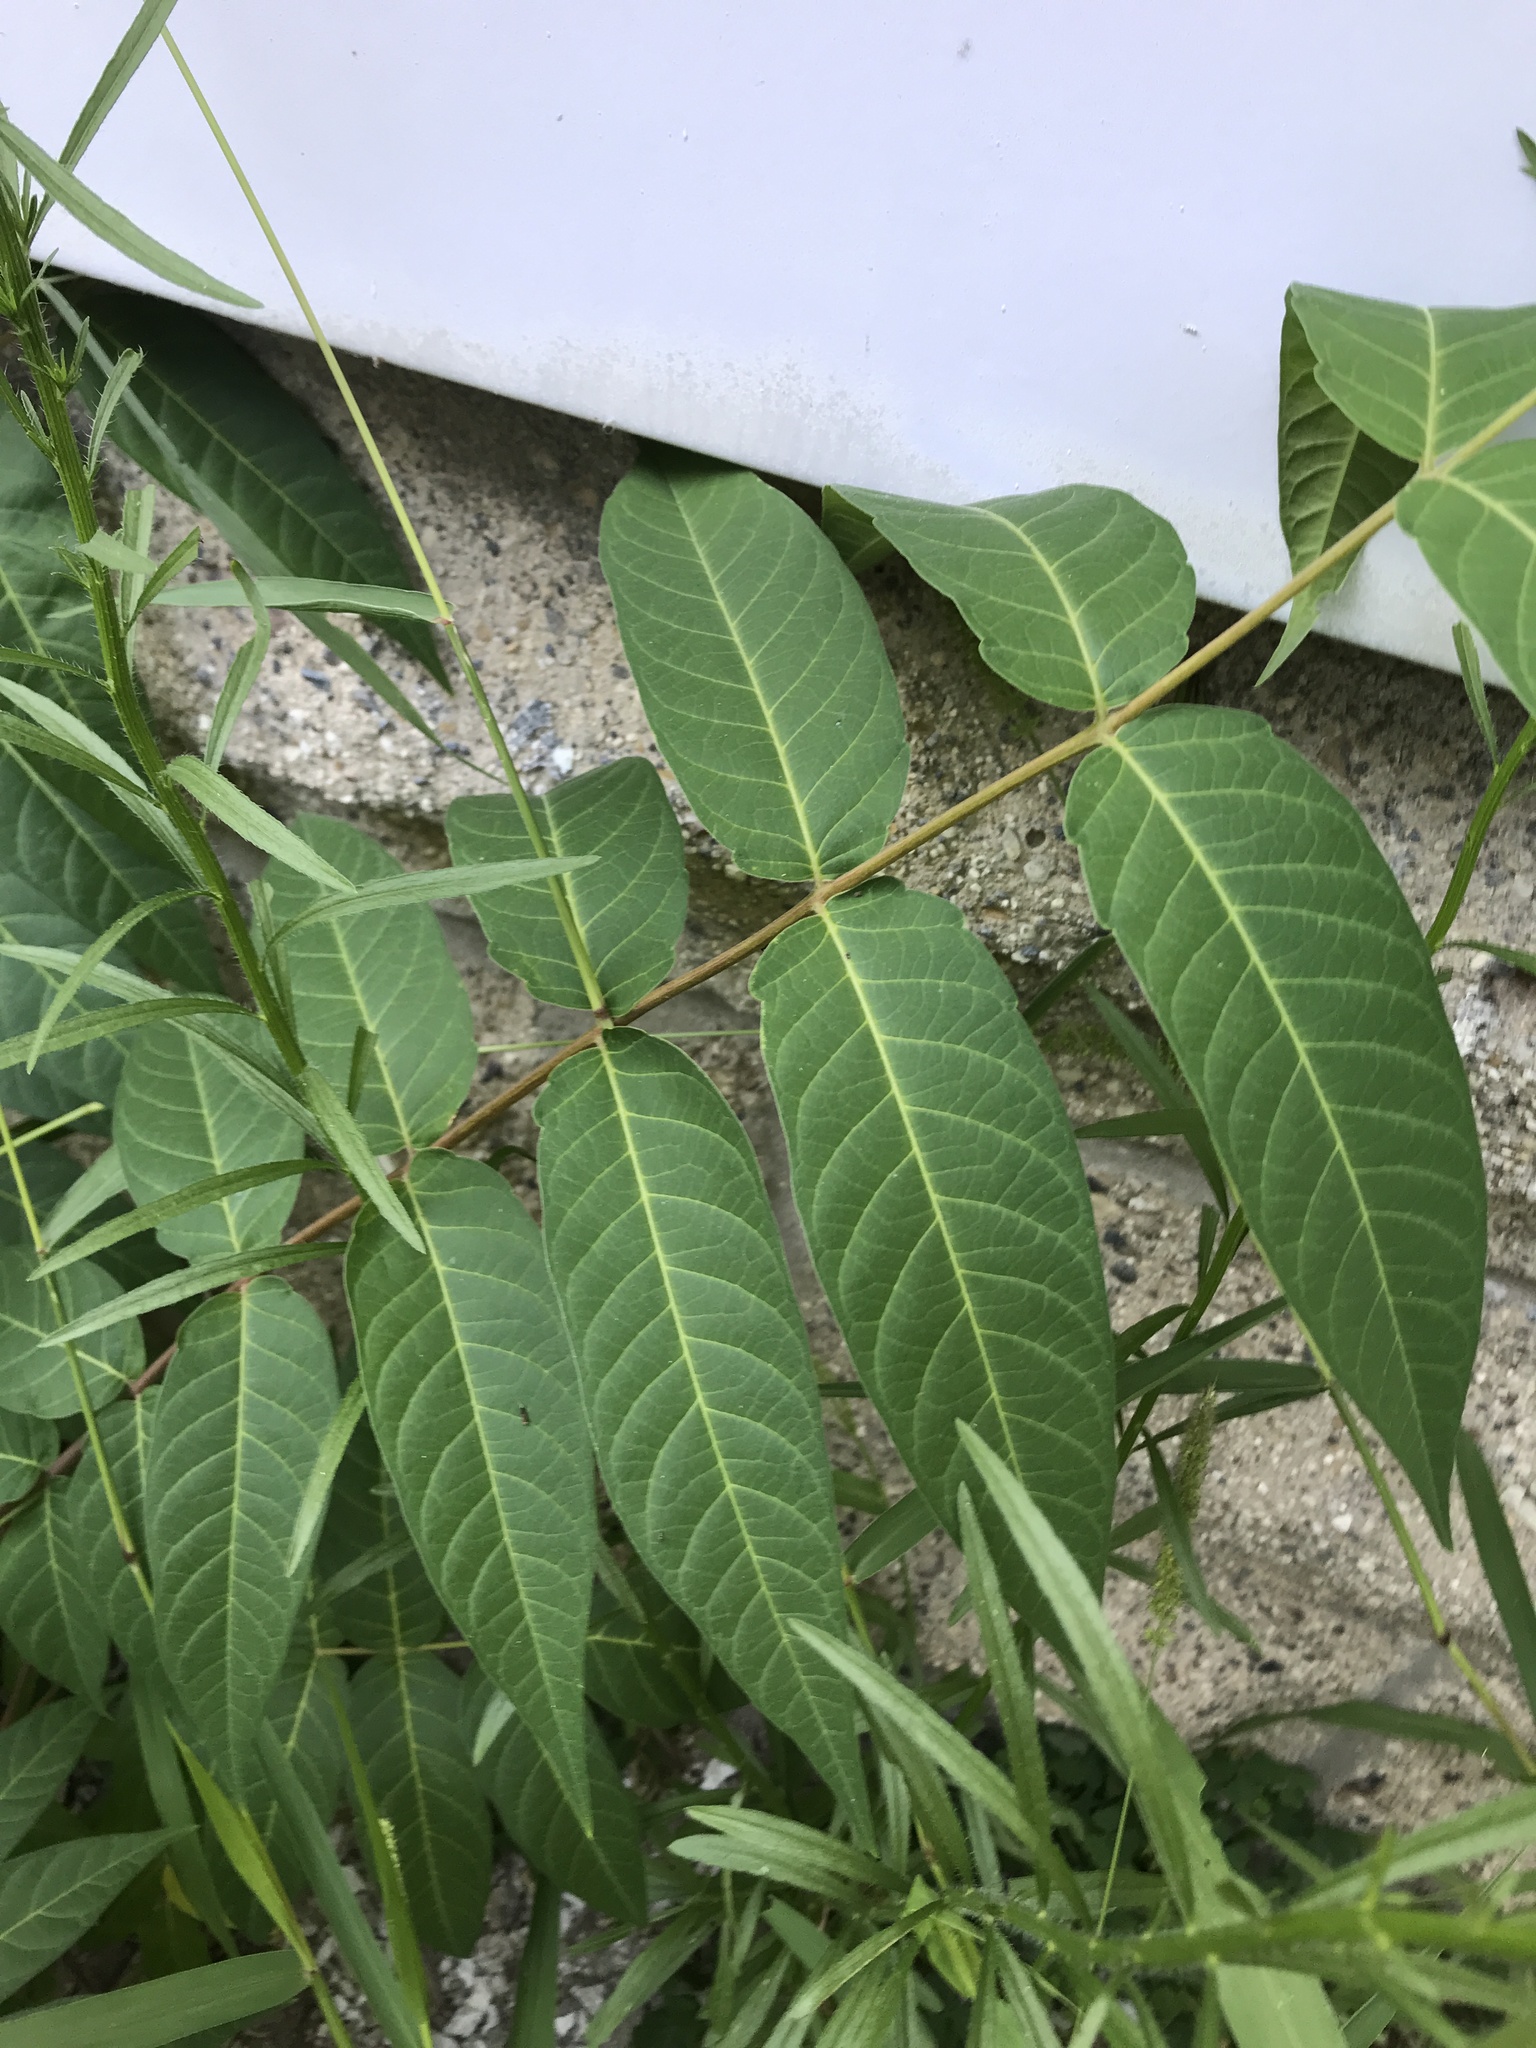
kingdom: Plantae
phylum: Tracheophyta
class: Magnoliopsida
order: Sapindales
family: Simaroubaceae
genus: Ailanthus
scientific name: Ailanthus altissima
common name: Tree-of-heaven
